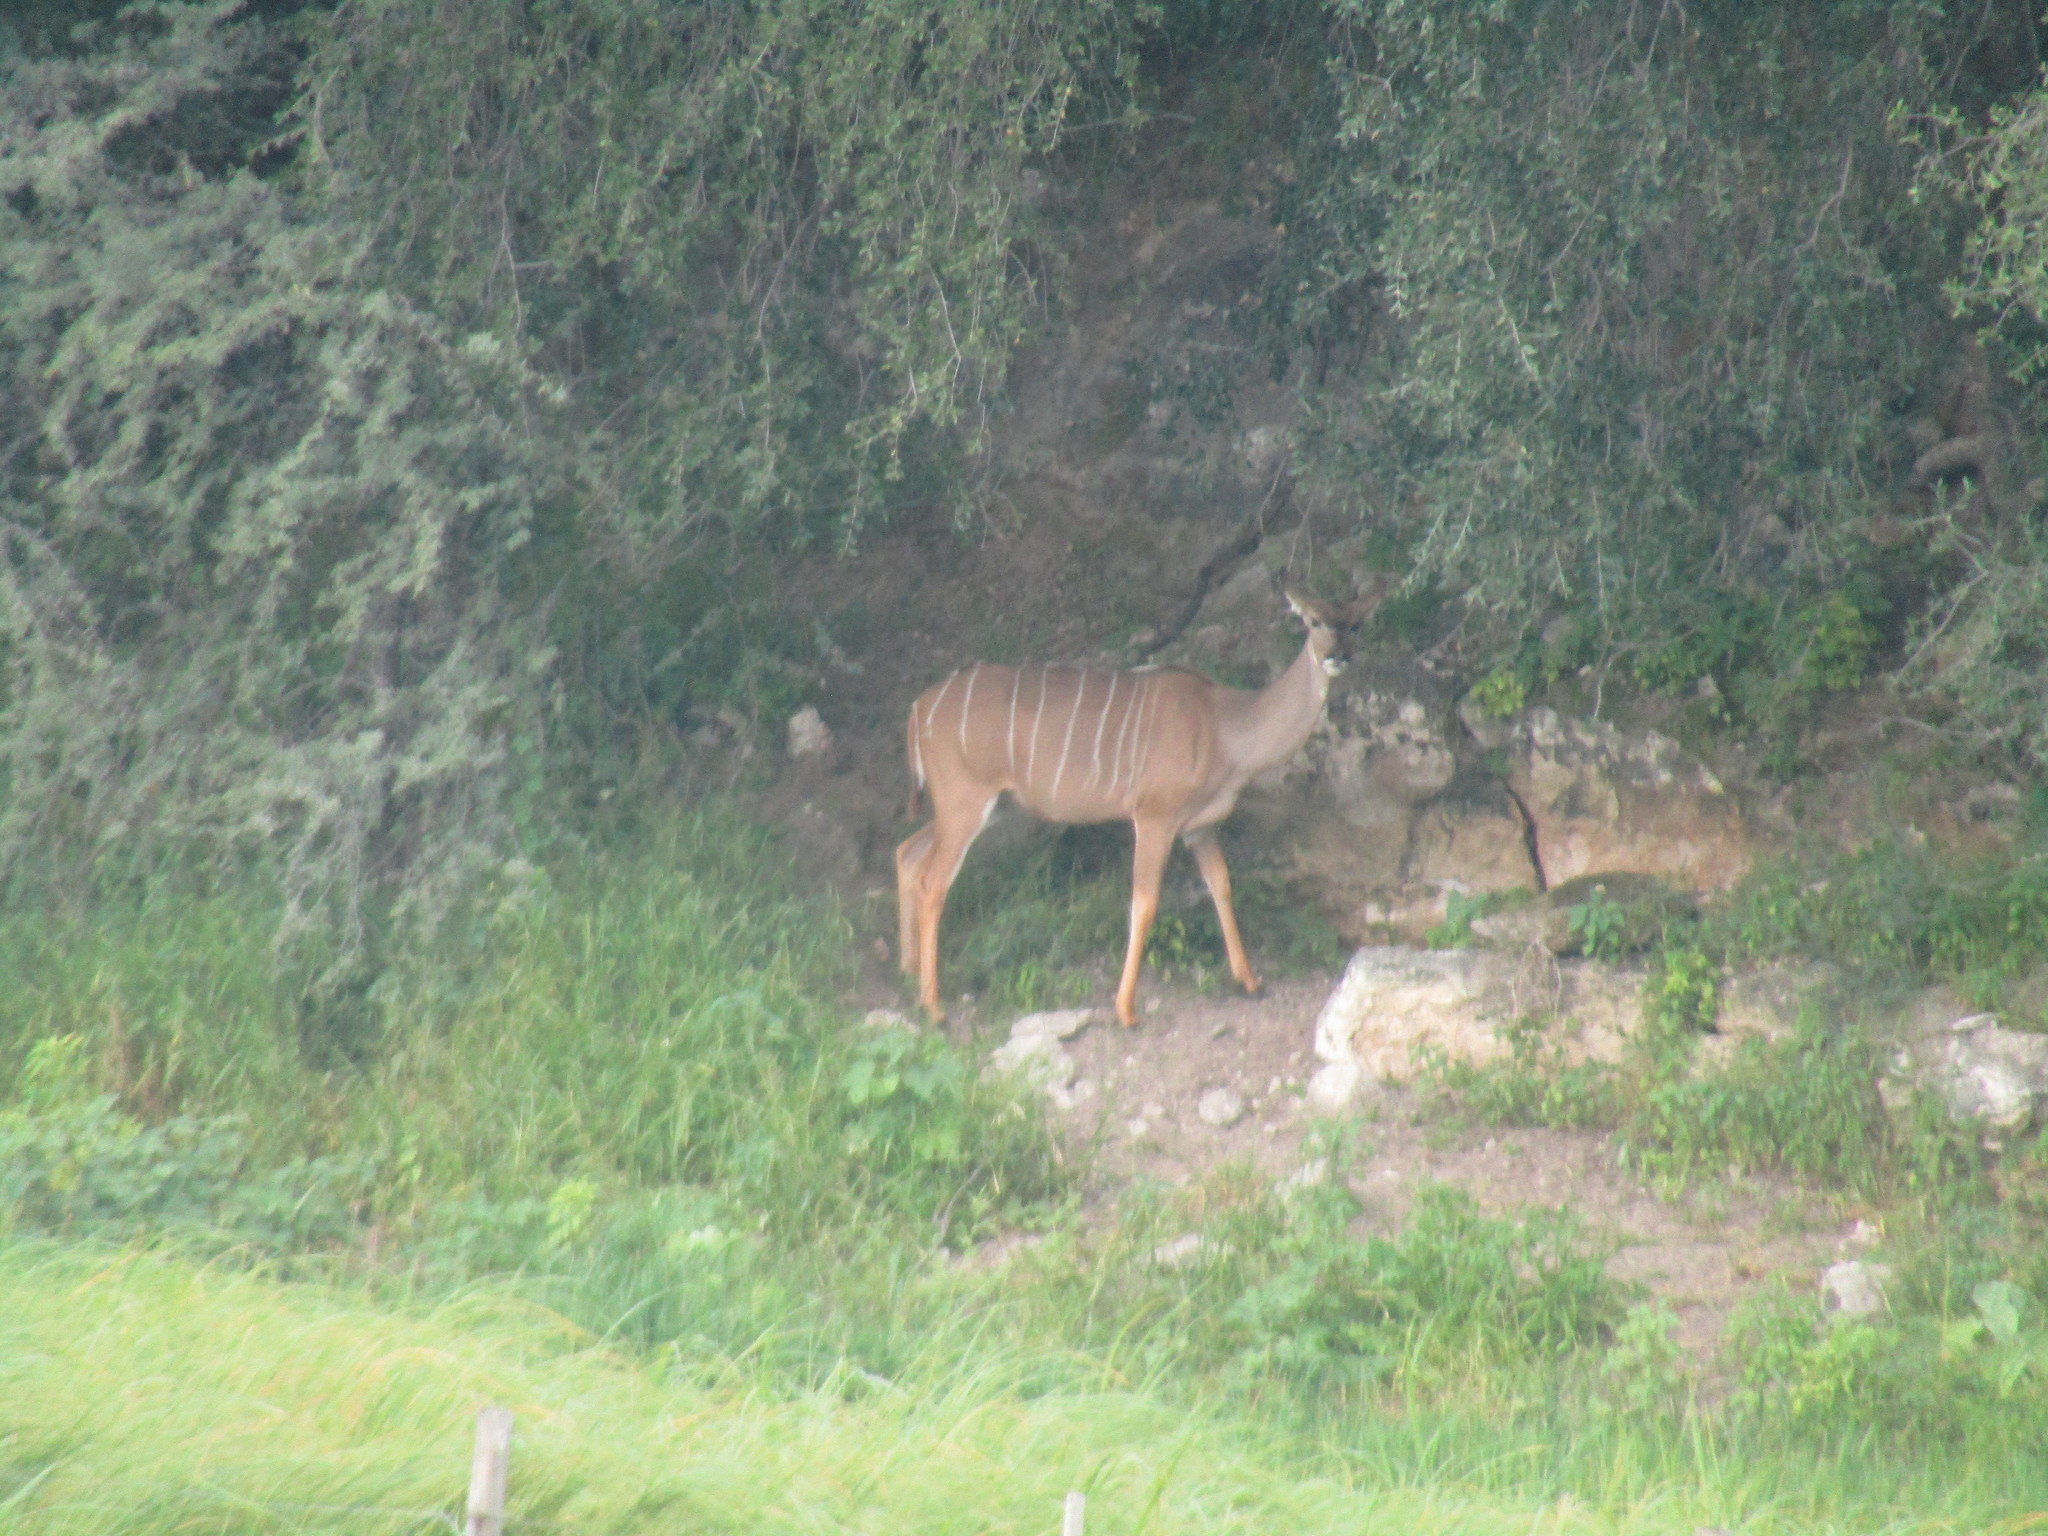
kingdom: Animalia
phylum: Chordata
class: Mammalia
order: Artiodactyla
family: Bovidae
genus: Tragelaphus
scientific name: Tragelaphus strepsiceros
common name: Greater kudu
